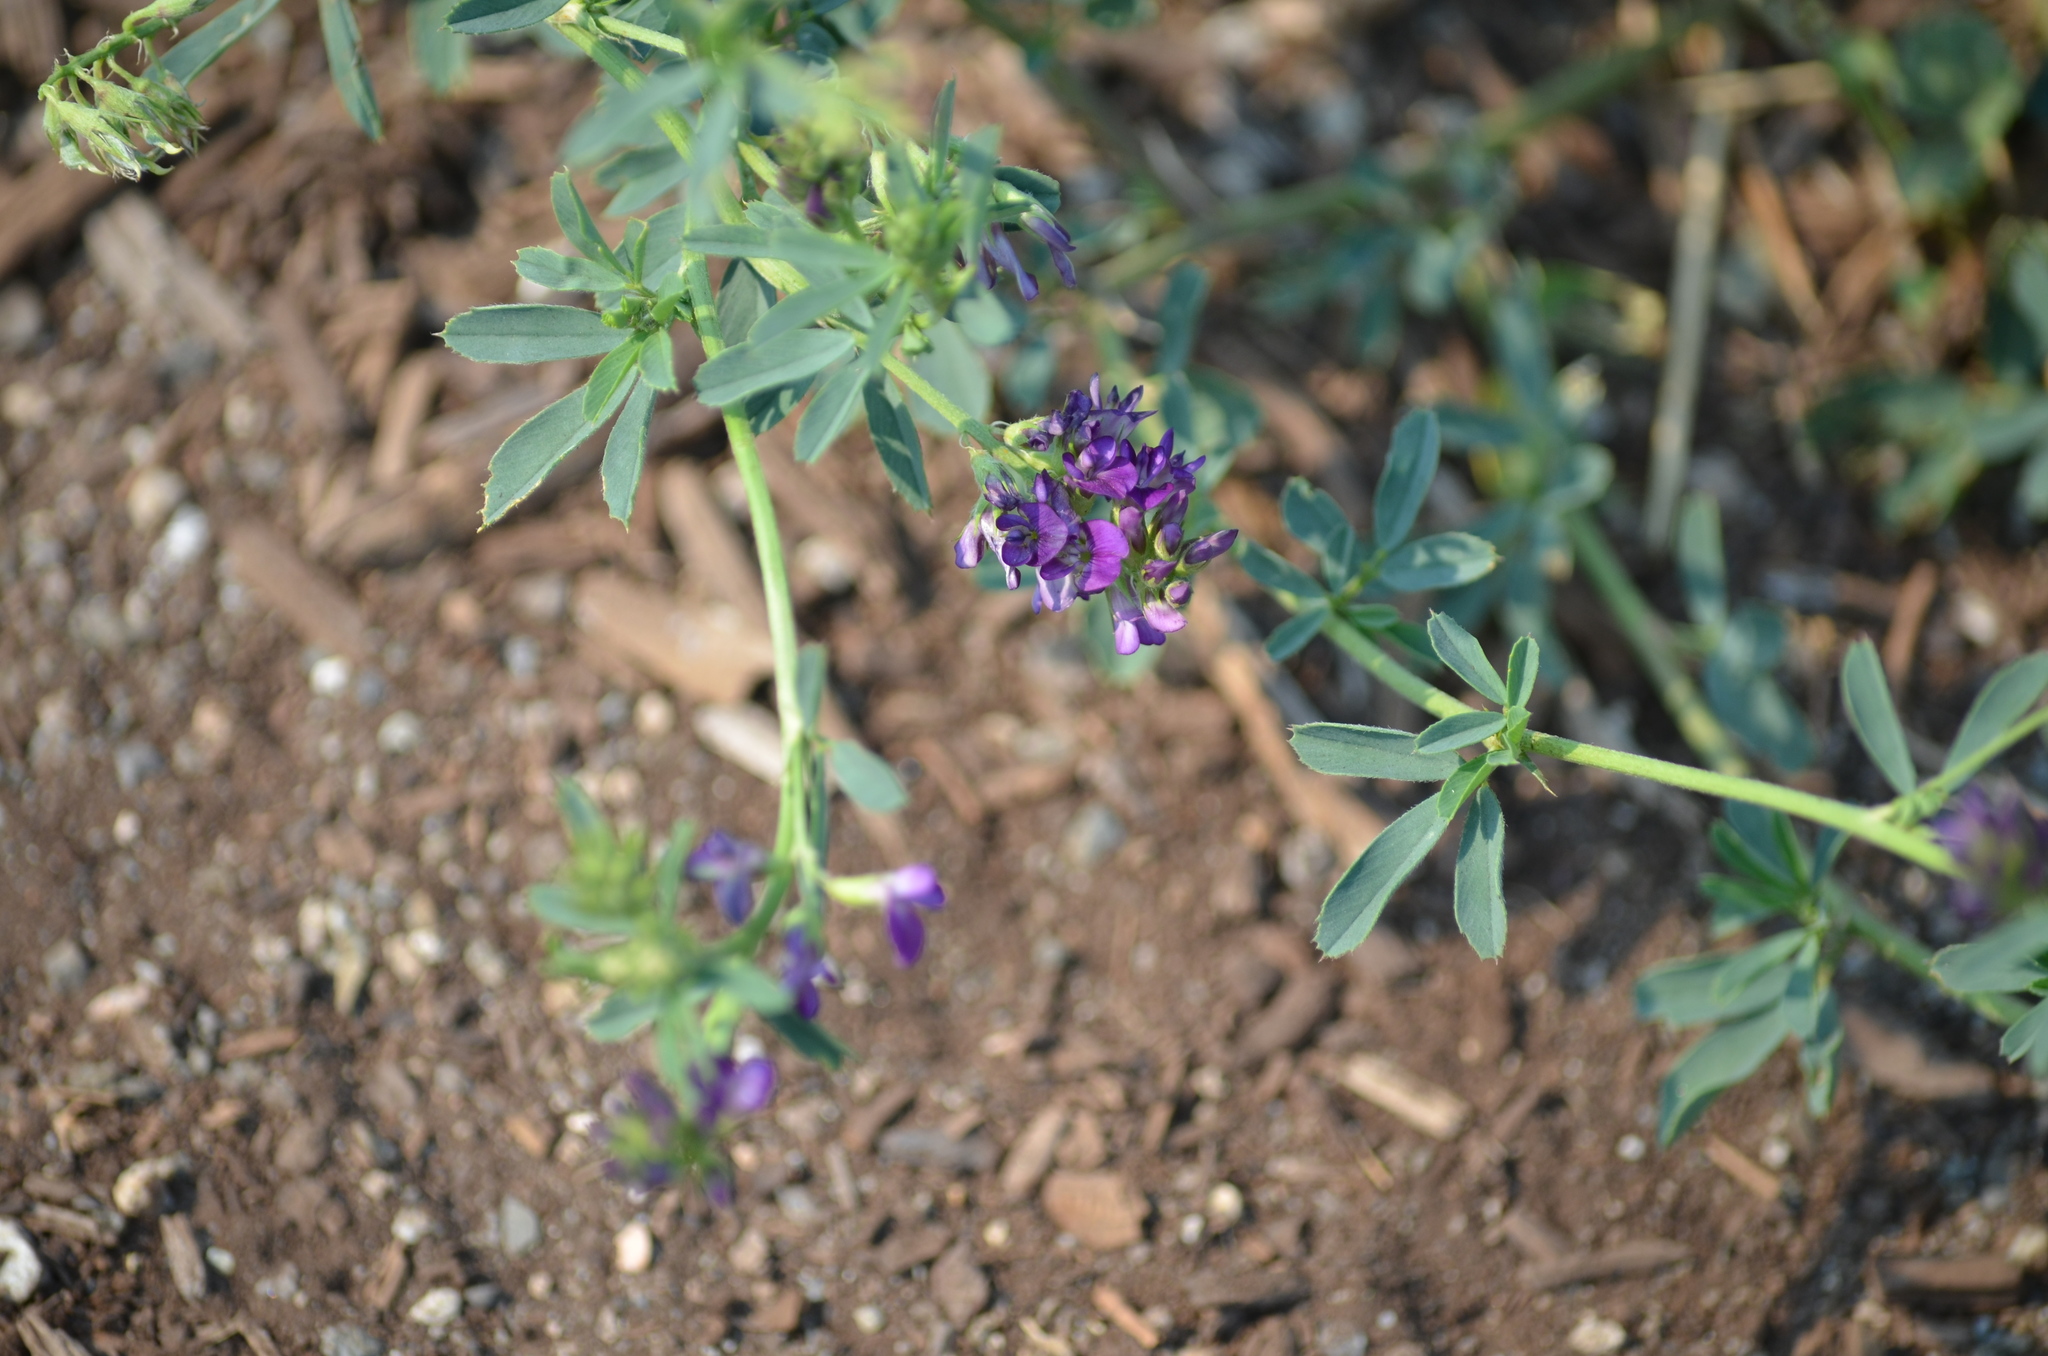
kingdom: Plantae
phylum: Tracheophyta
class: Magnoliopsida
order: Fabales
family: Fabaceae
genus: Medicago
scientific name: Medicago sativa
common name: Alfalfa
